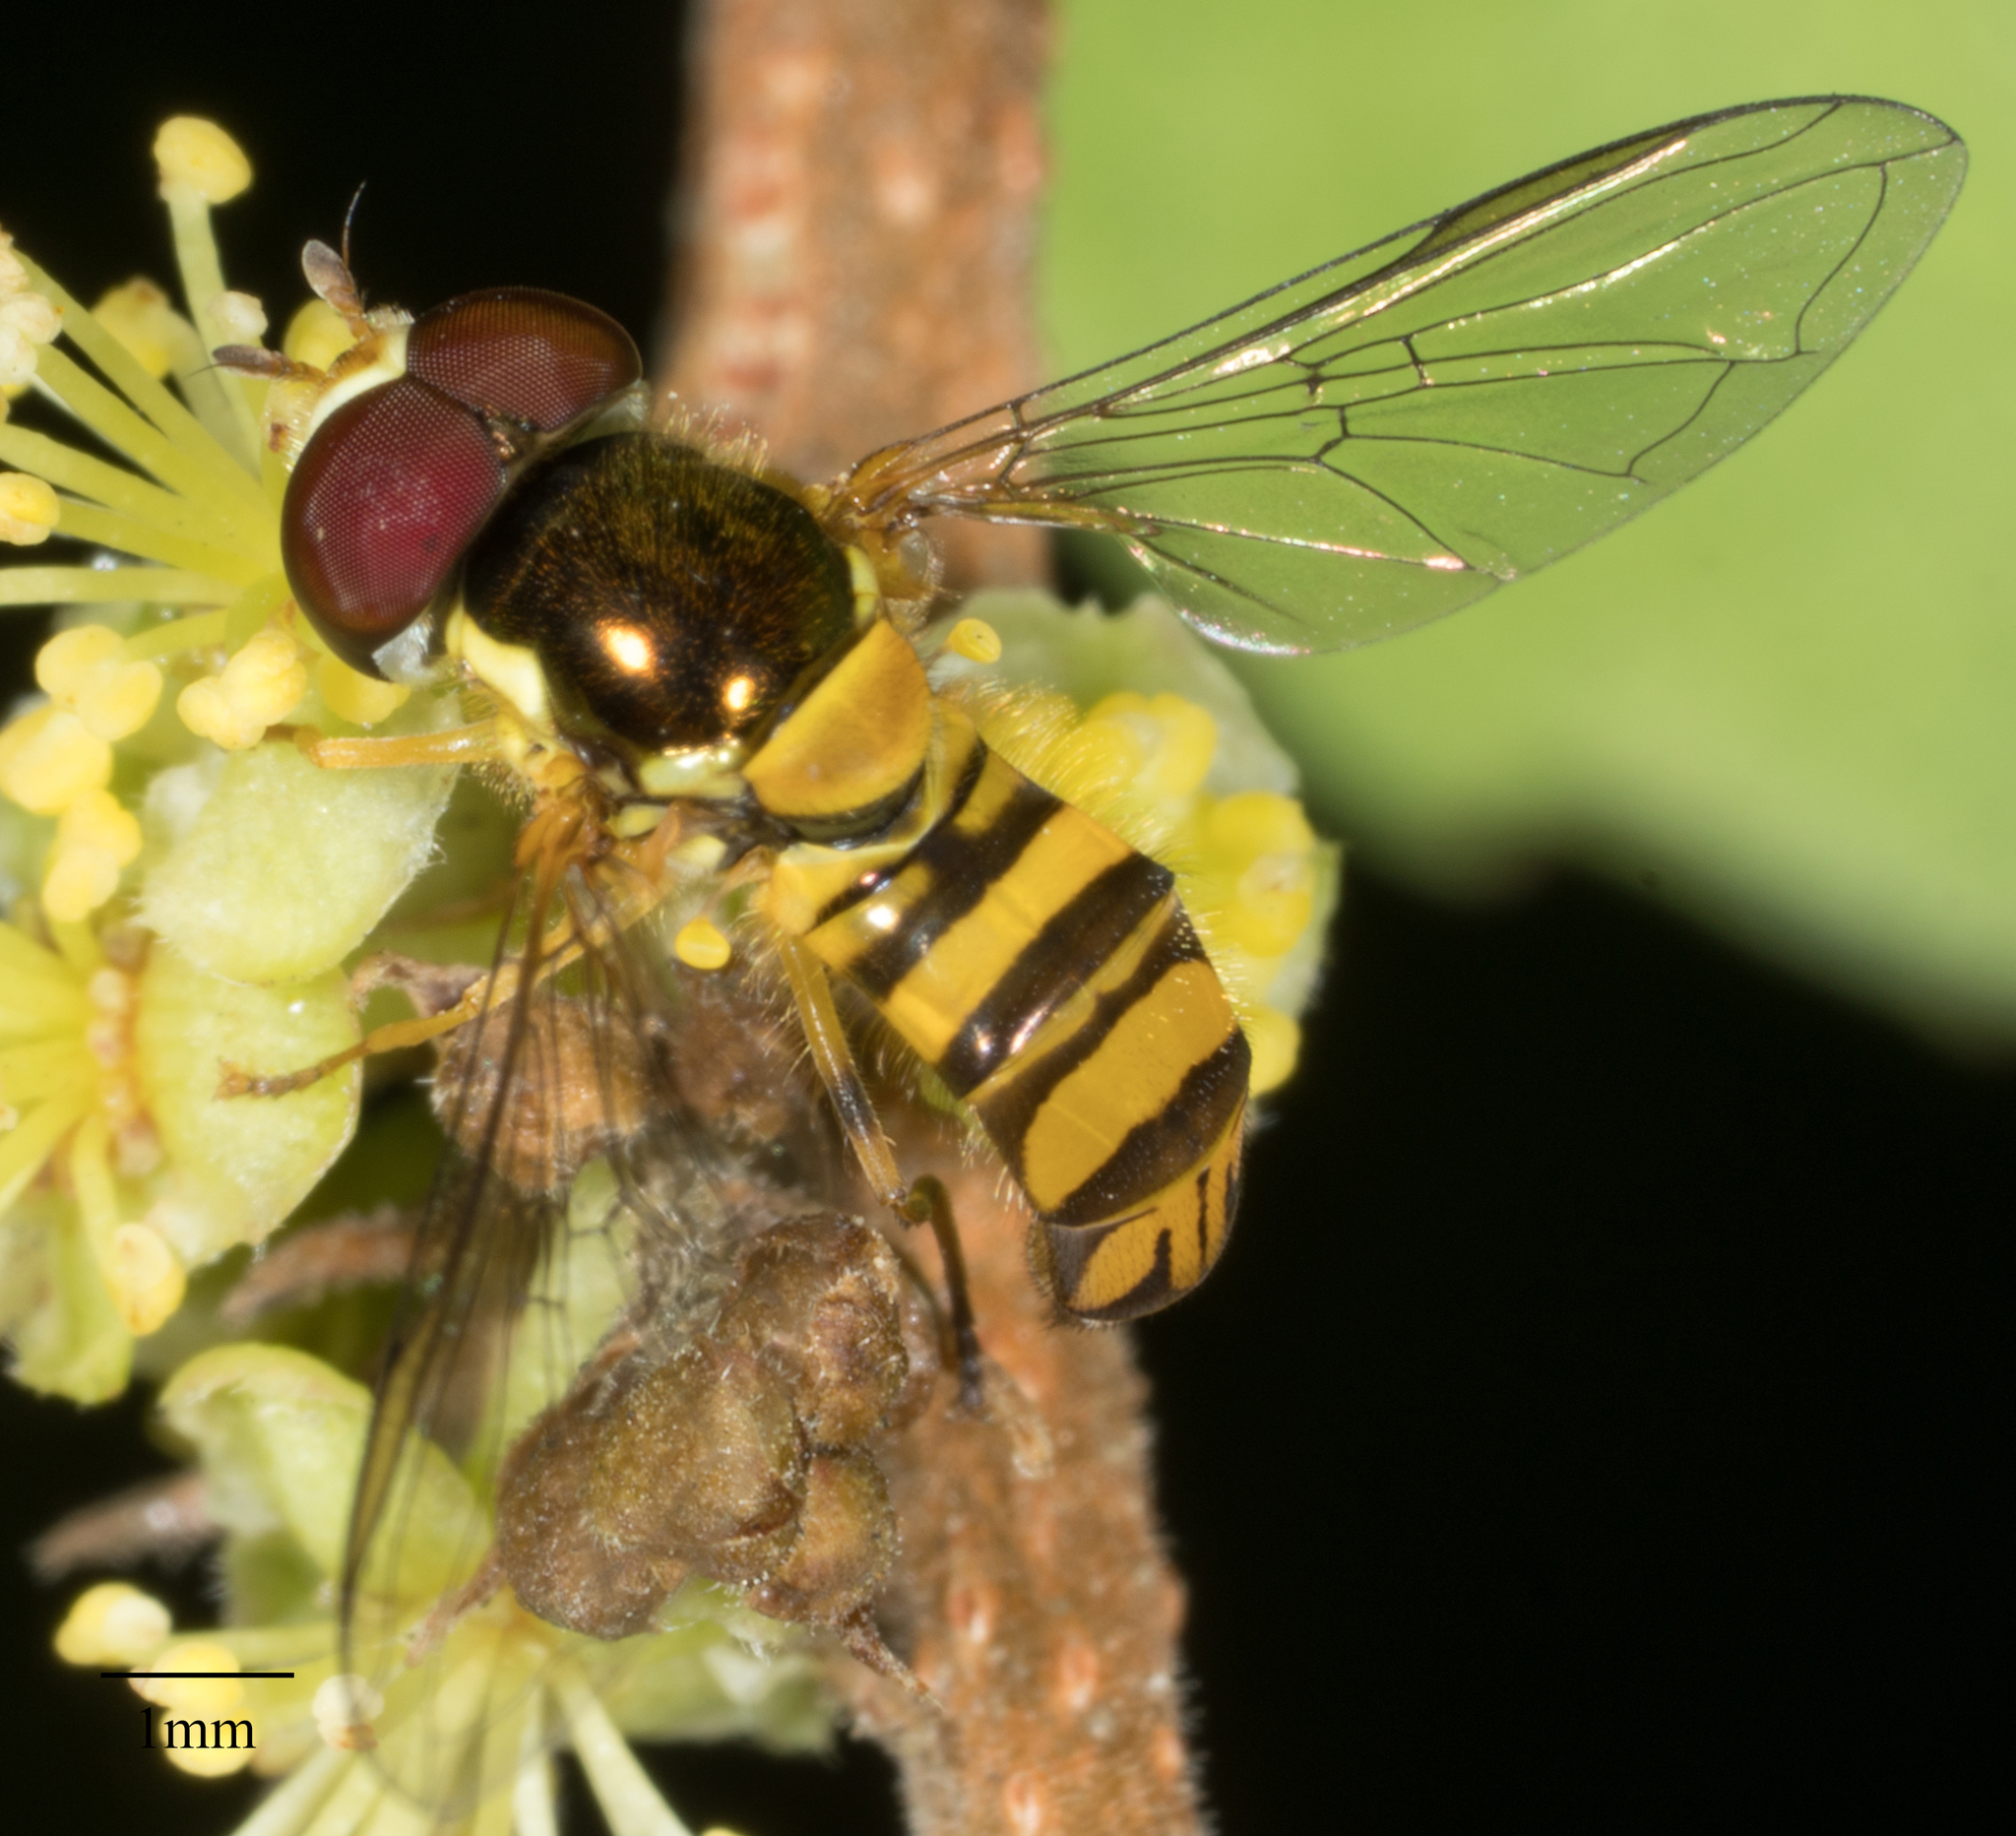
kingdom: Animalia
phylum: Arthropoda
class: Insecta
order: Diptera
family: Syrphidae
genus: Allograpta
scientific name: Allograpta obliqua
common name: Common oblique syrphid
